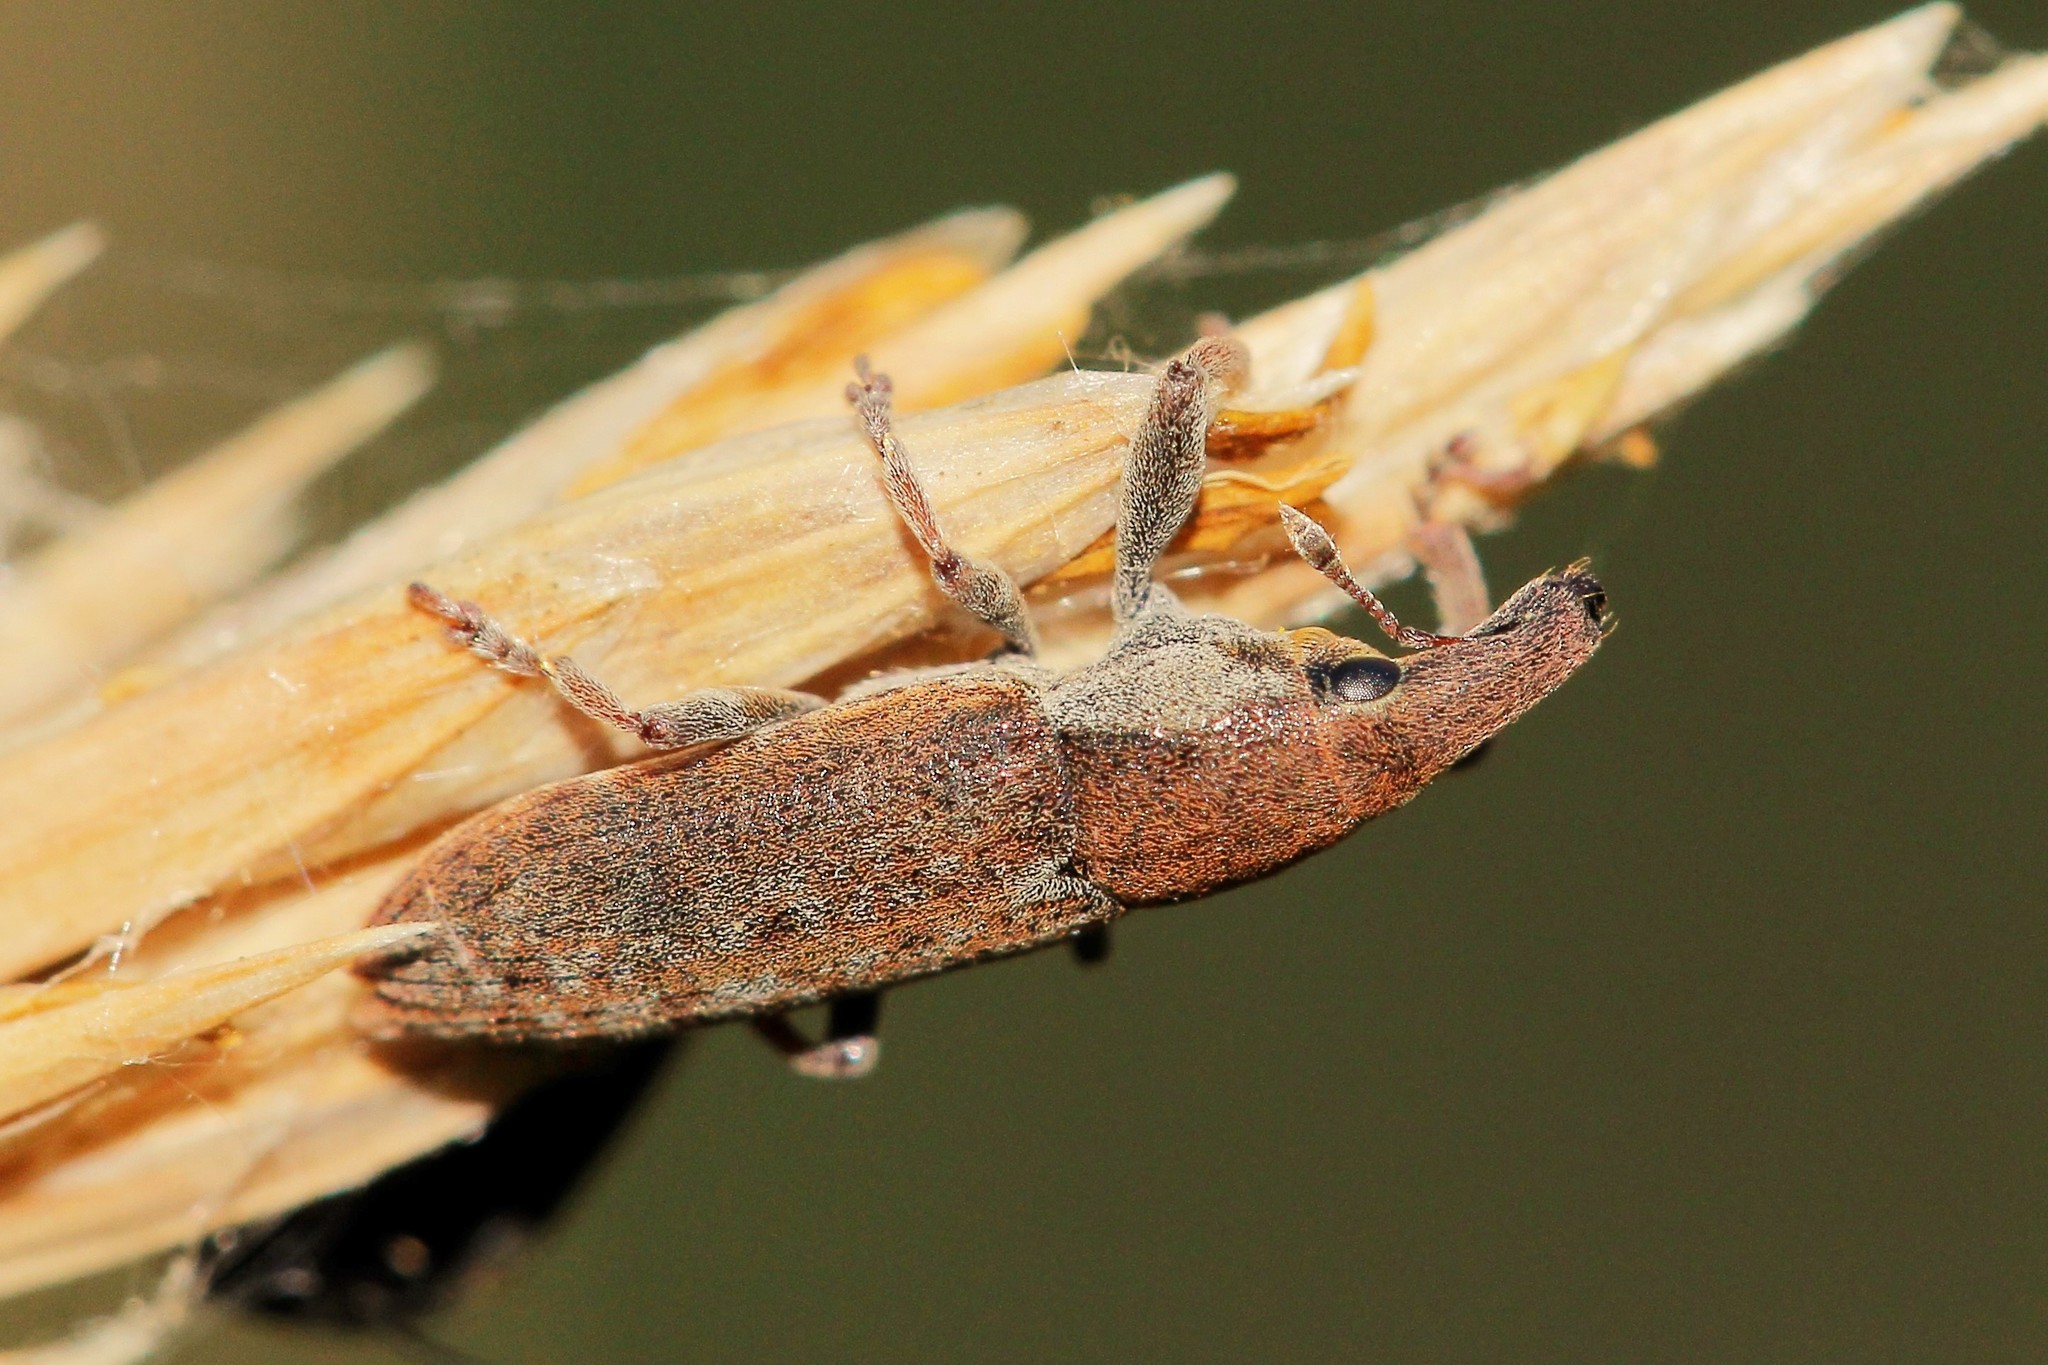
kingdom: Animalia
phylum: Arthropoda
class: Insecta
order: Coleoptera
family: Curculionidae
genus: Lixus
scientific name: Lixus cinerascens
